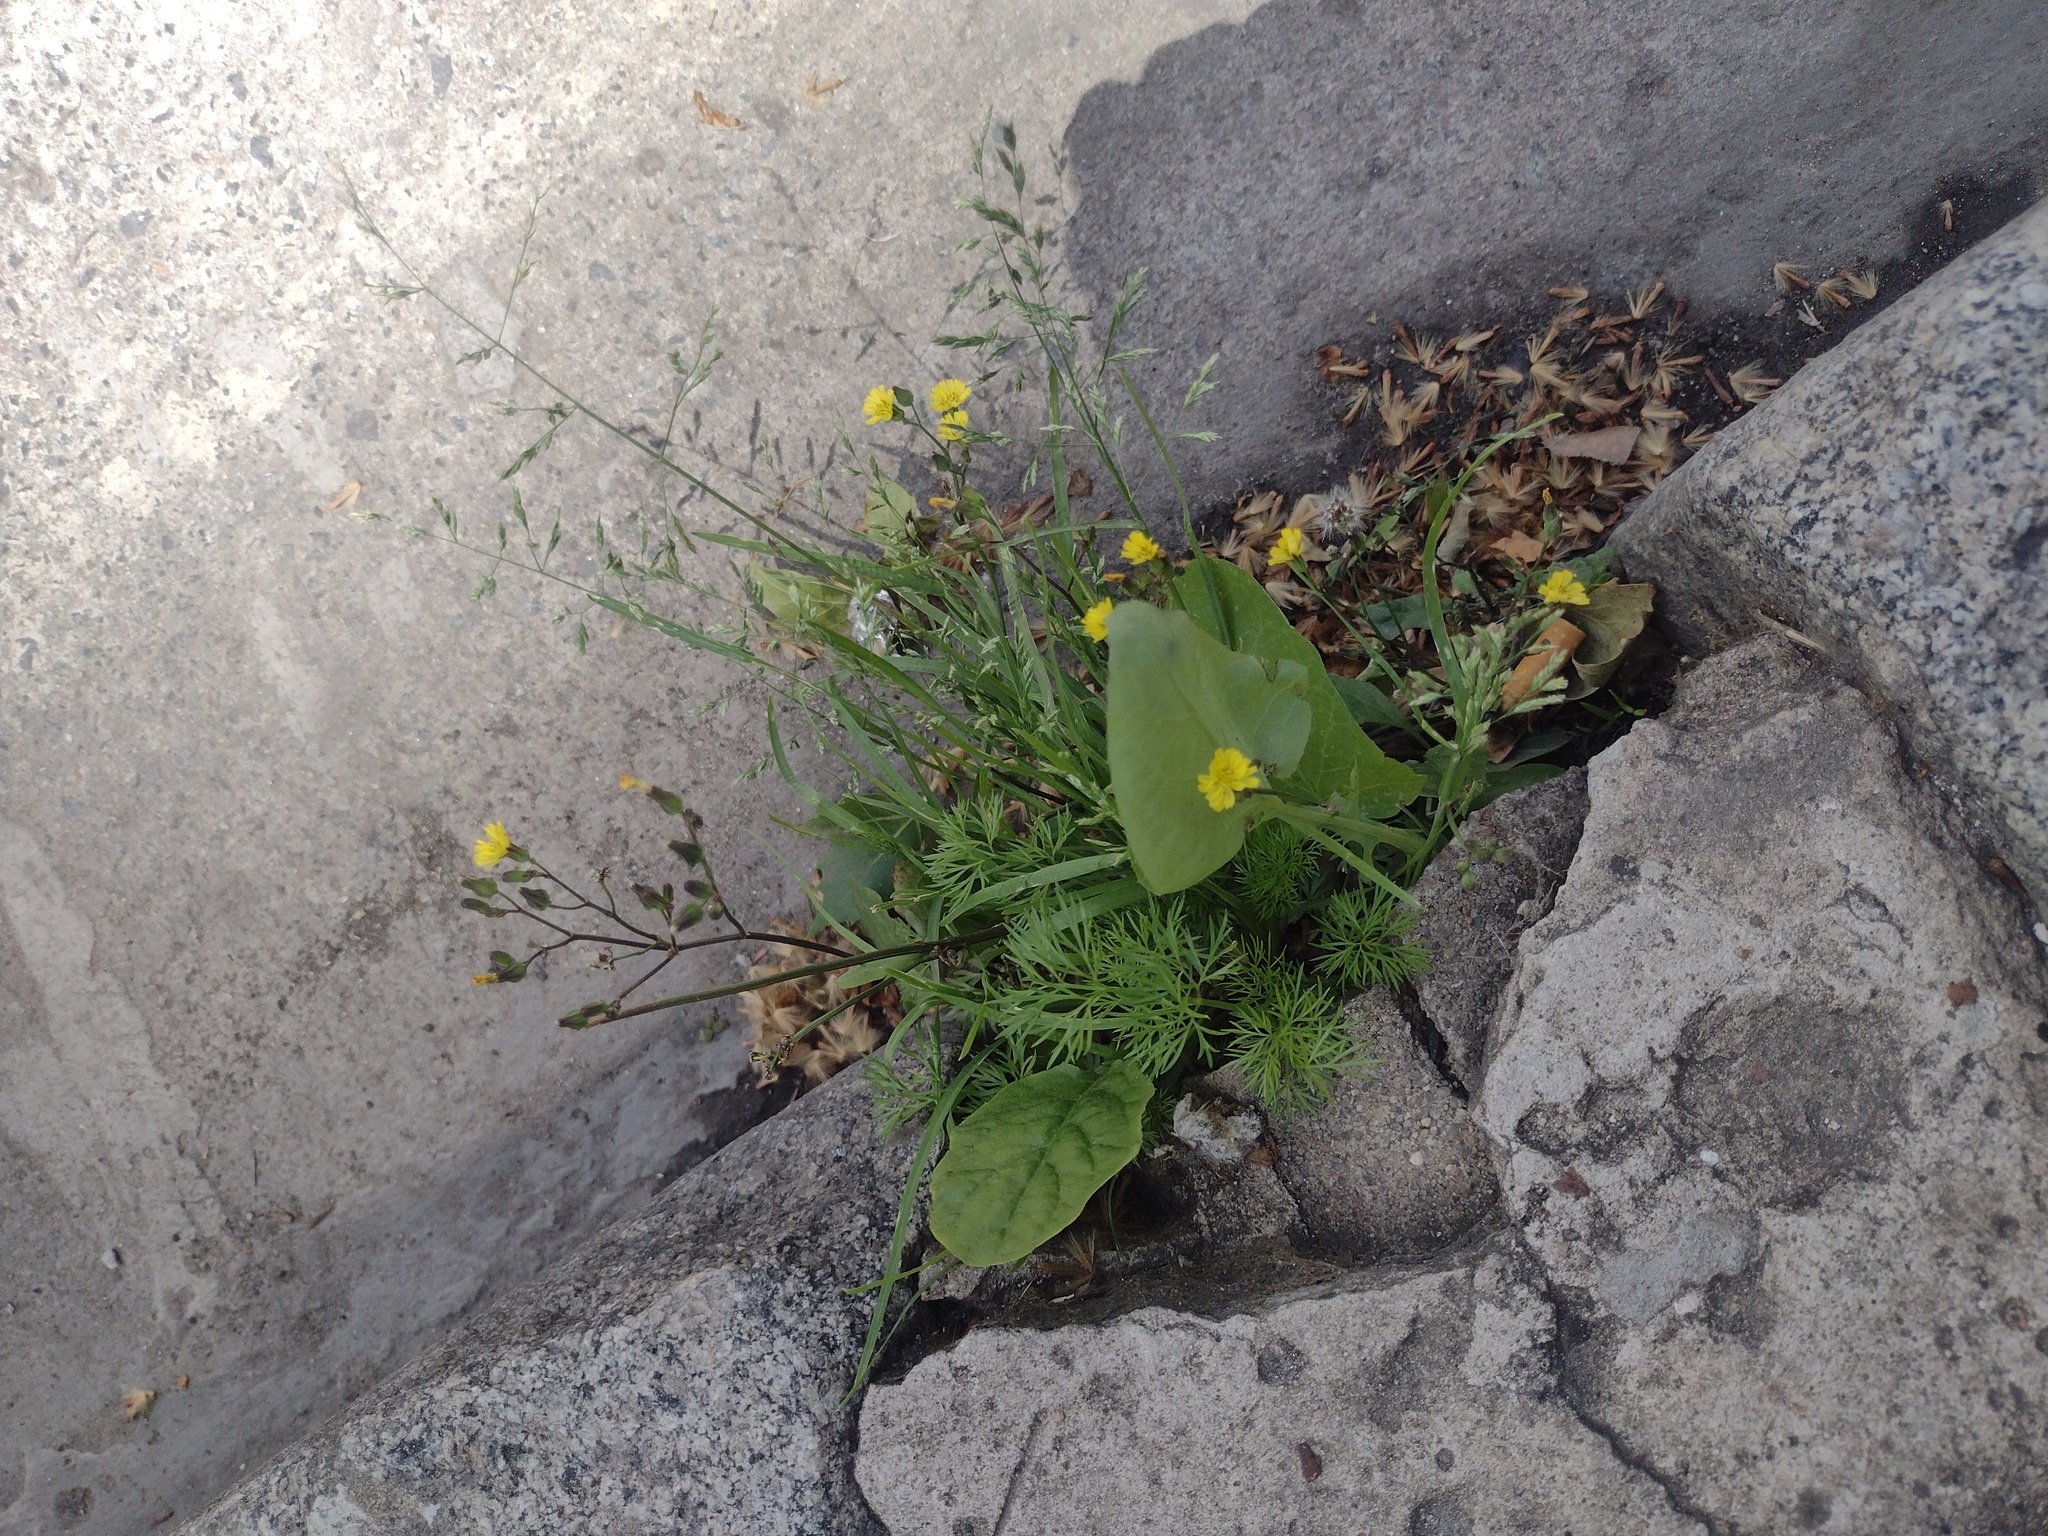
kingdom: Plantae
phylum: Tracheophyta
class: Magnoliopsida
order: Asterales
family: Asteraceae
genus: Youngia
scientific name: Youngia japonica
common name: Oriental false hawksbeard
